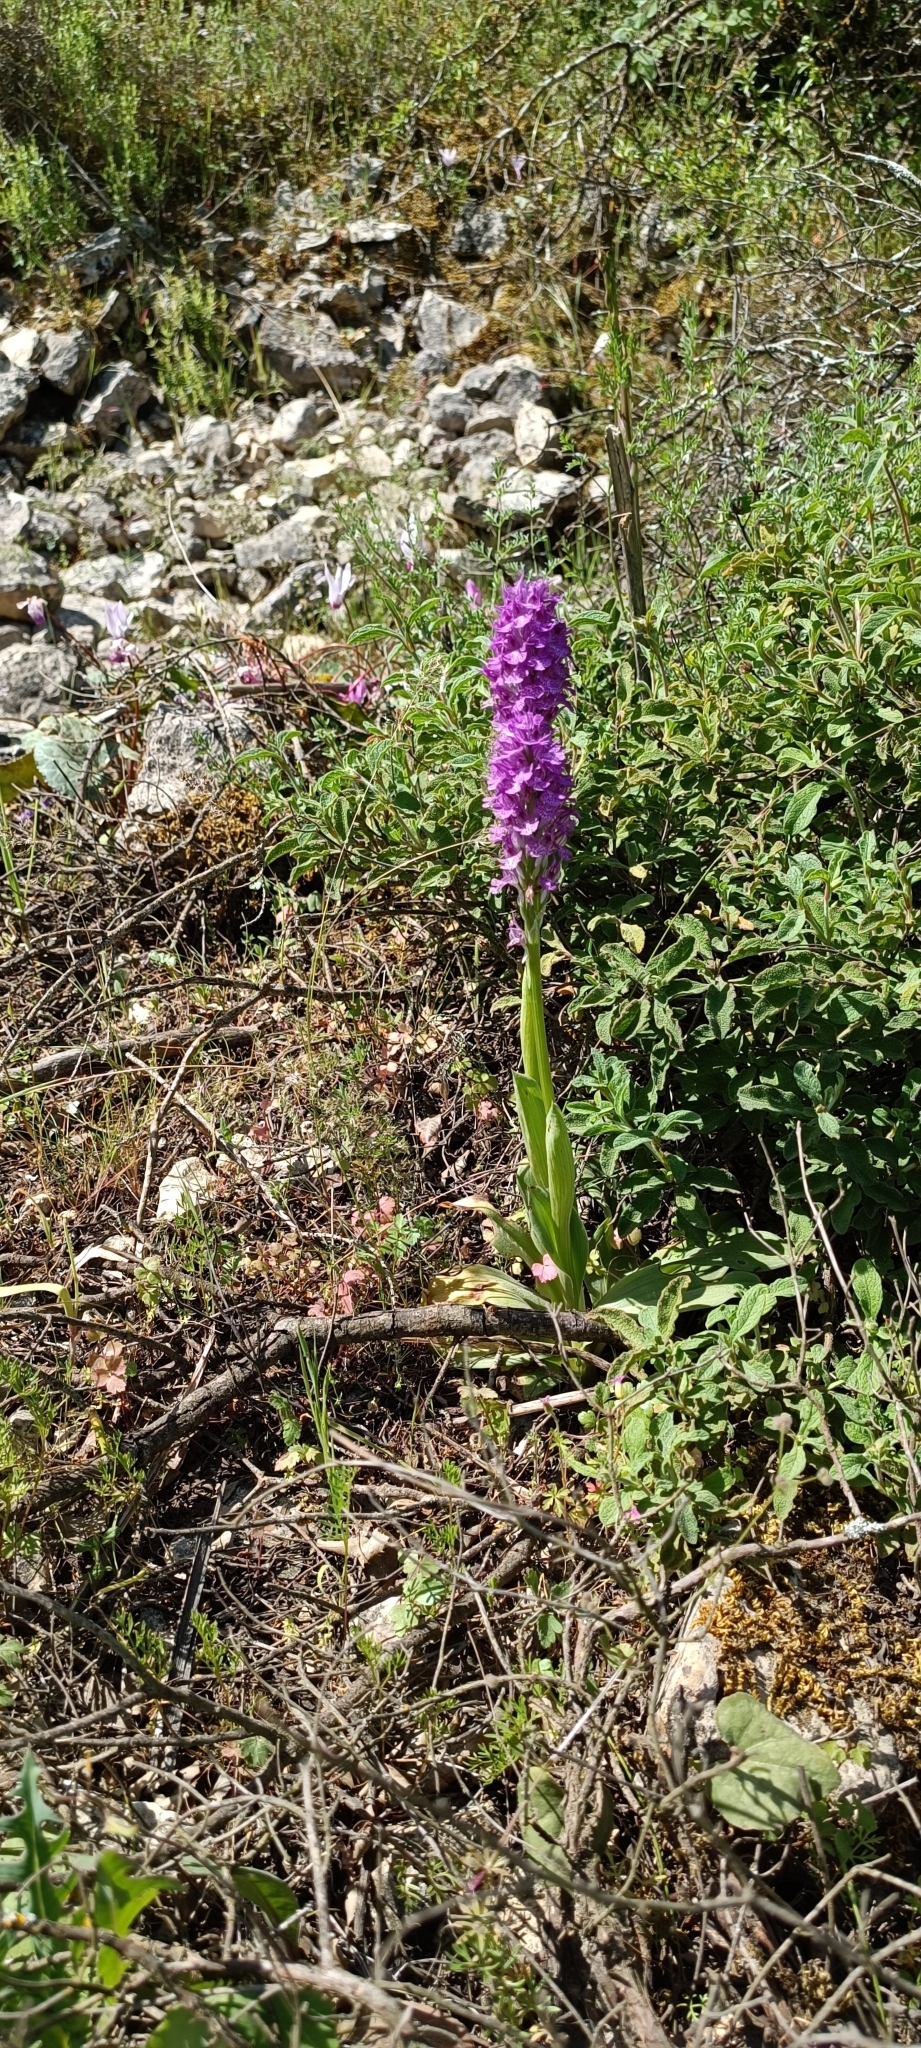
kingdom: Plantae
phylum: Tracheophyta
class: Liliopsida
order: Asparagales
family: Orchidaceae
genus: Neotinea
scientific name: Neotinea tridentata
